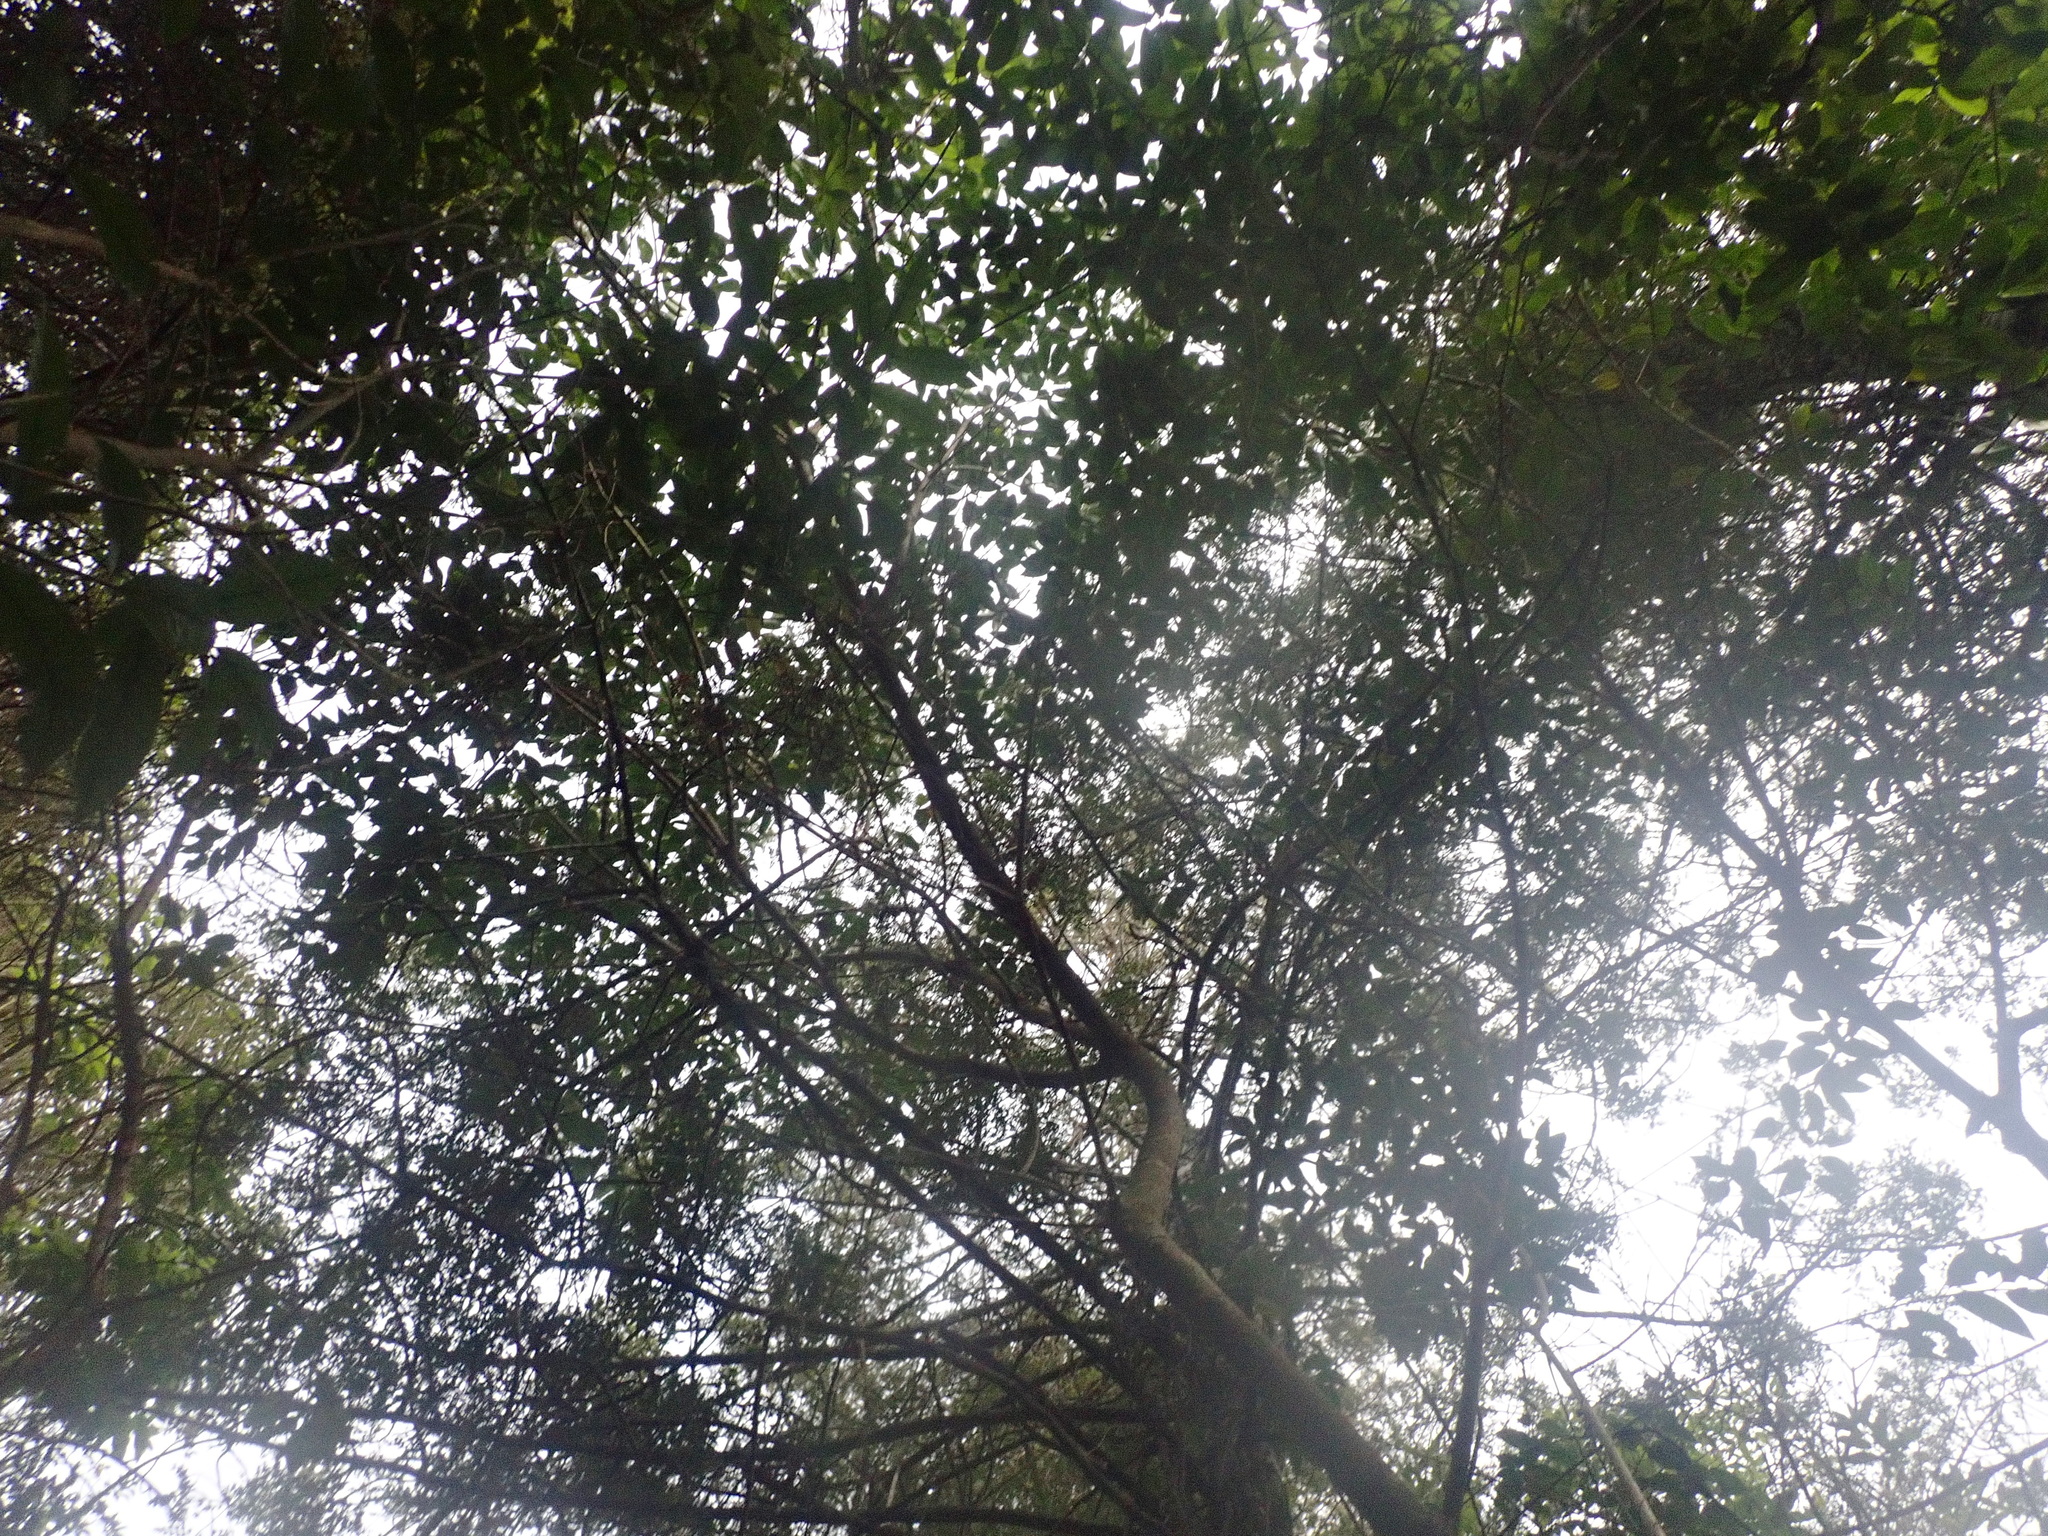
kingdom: Plantae
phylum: Tracheophyta
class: Magnoliopsida
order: Lamiales
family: Oleaceae
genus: Ligustrum
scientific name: Ligustrum lucidum
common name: Glossy privet
